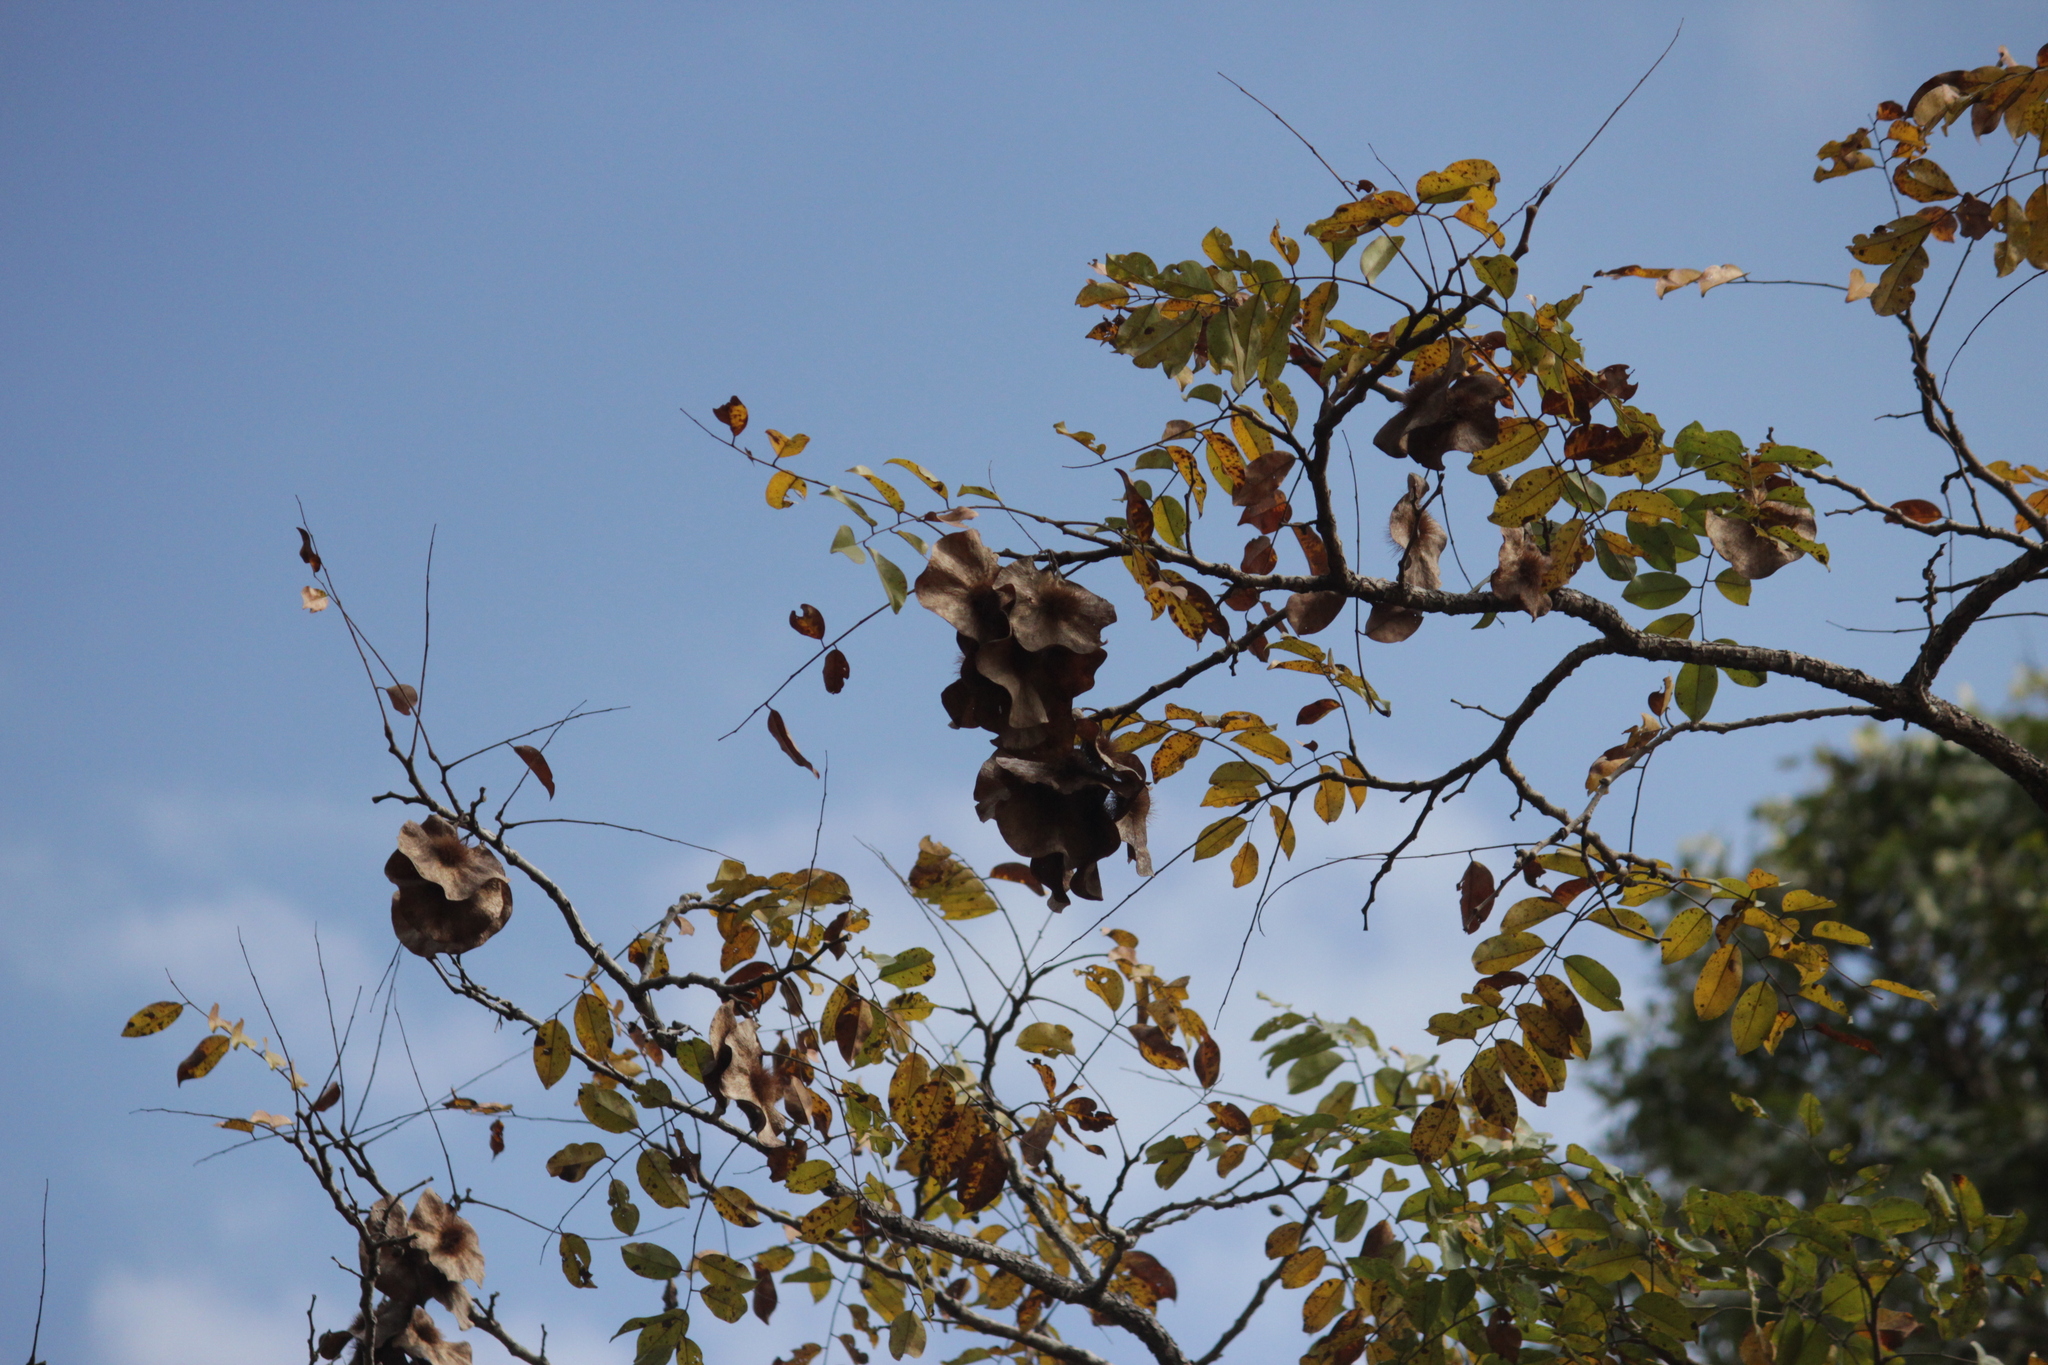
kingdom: Plantae
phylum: Tracheophyta
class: Magnoliopsida
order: Fabales
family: Fabaceae
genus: Pterocarpus
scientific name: Pterocarpus angolensis
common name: Bloodwood tree
